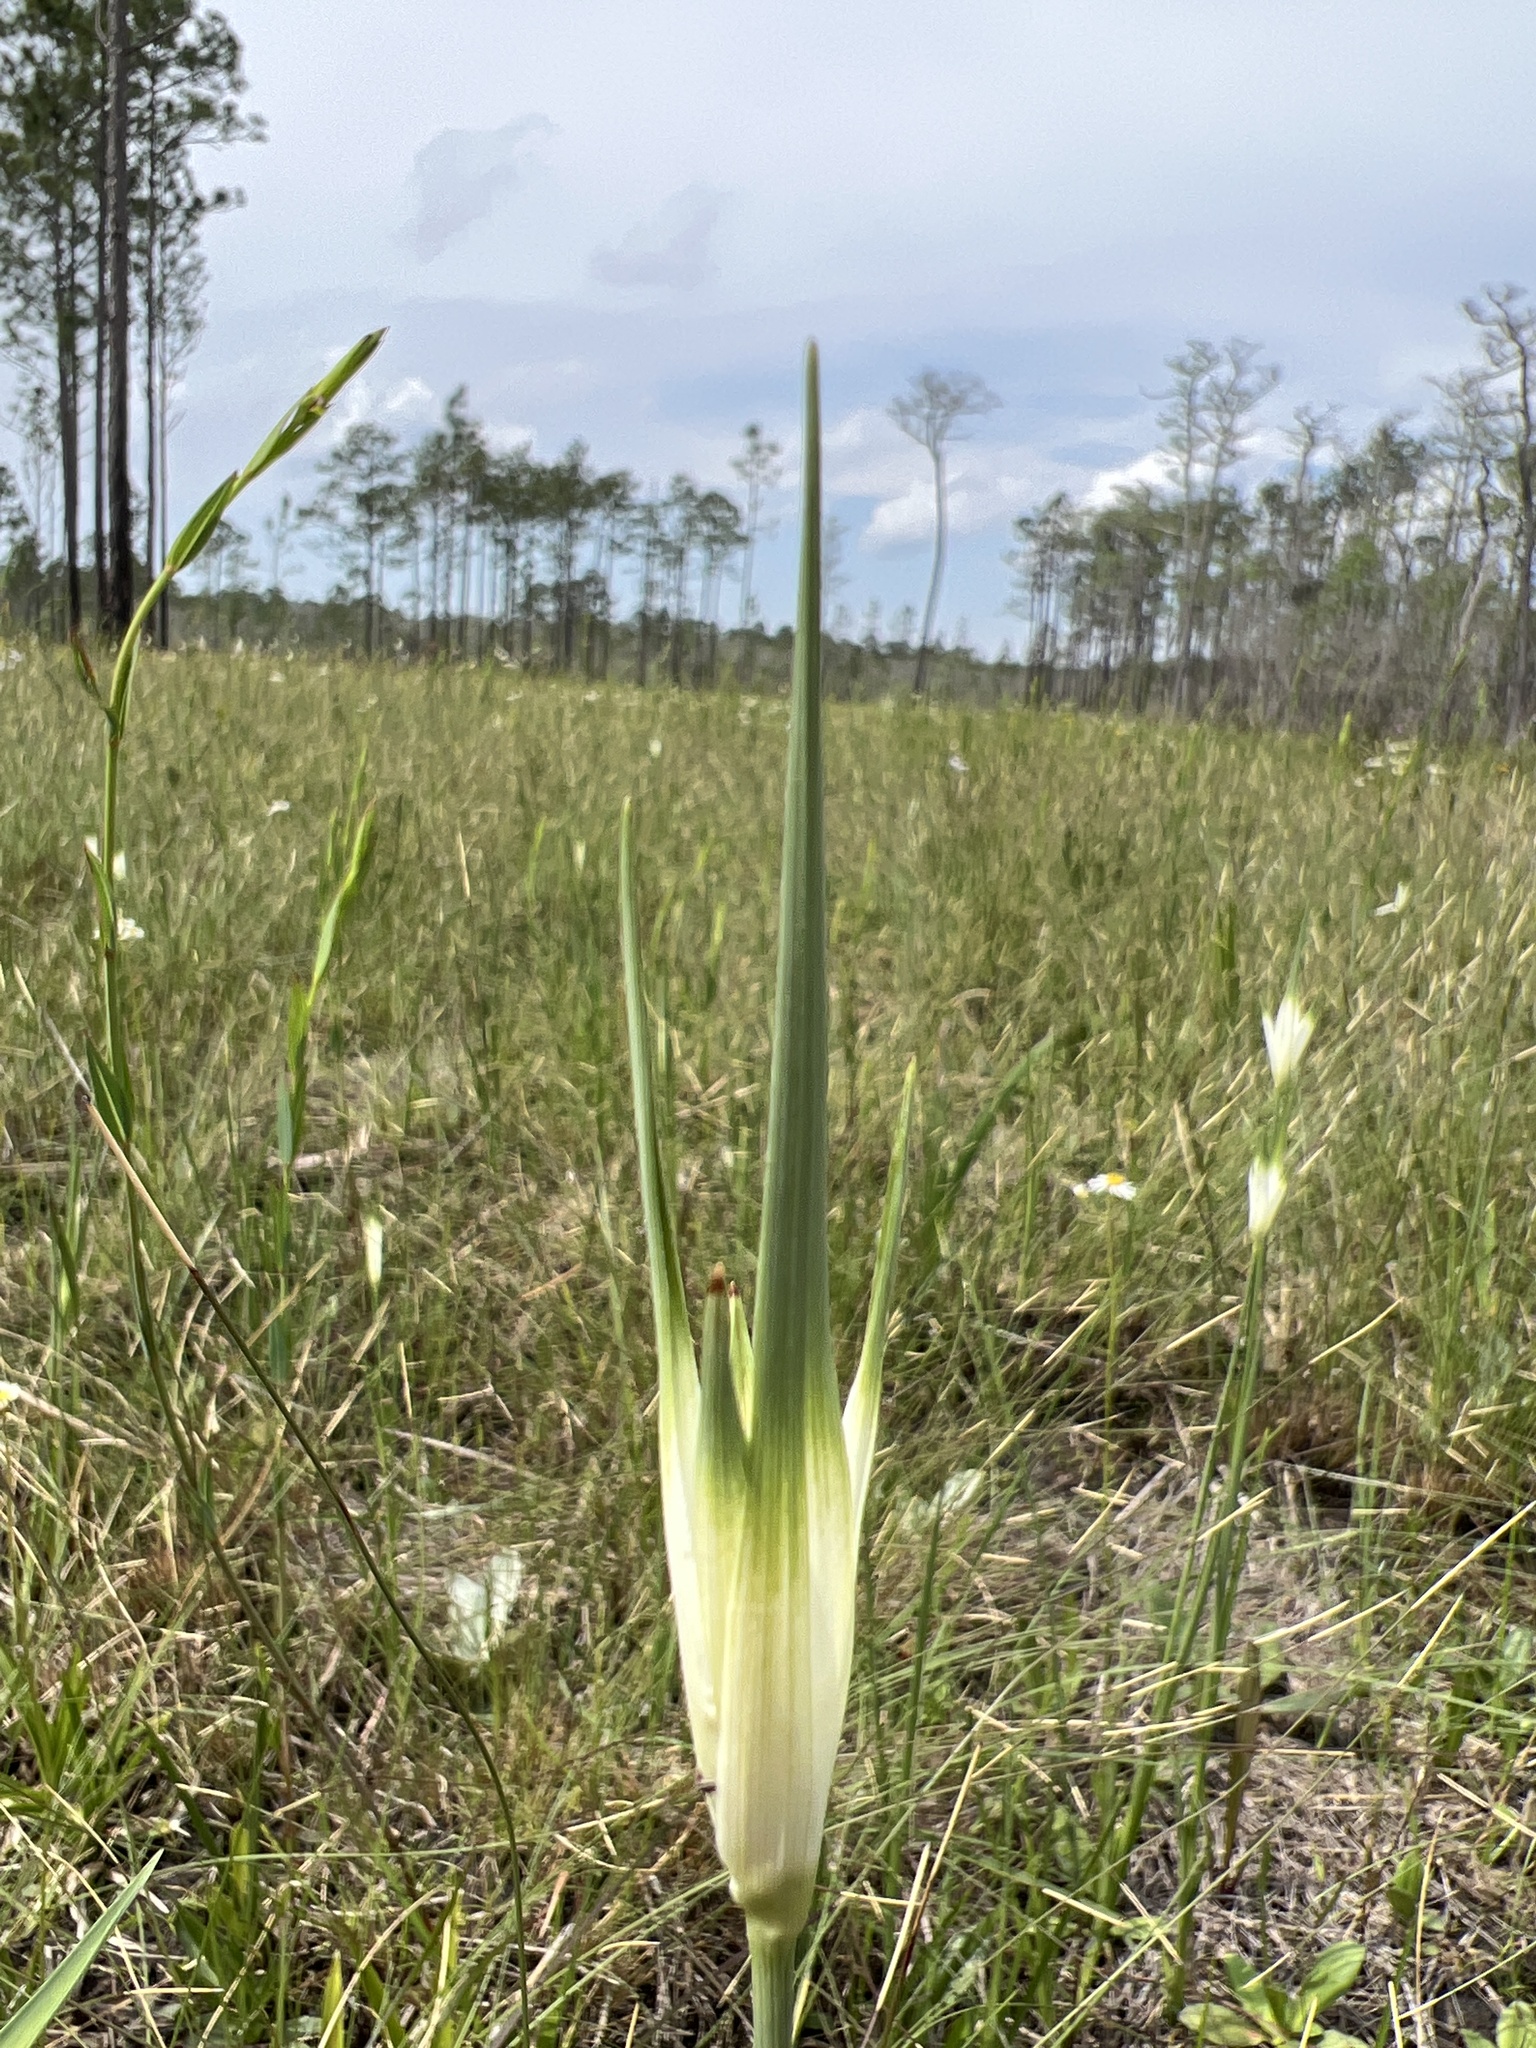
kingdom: Plantae
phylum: Tracheophyta
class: Liliopsida
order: Poales
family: Cyperaceae
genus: Rhynchospora
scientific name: Rhynchospora latifolia
